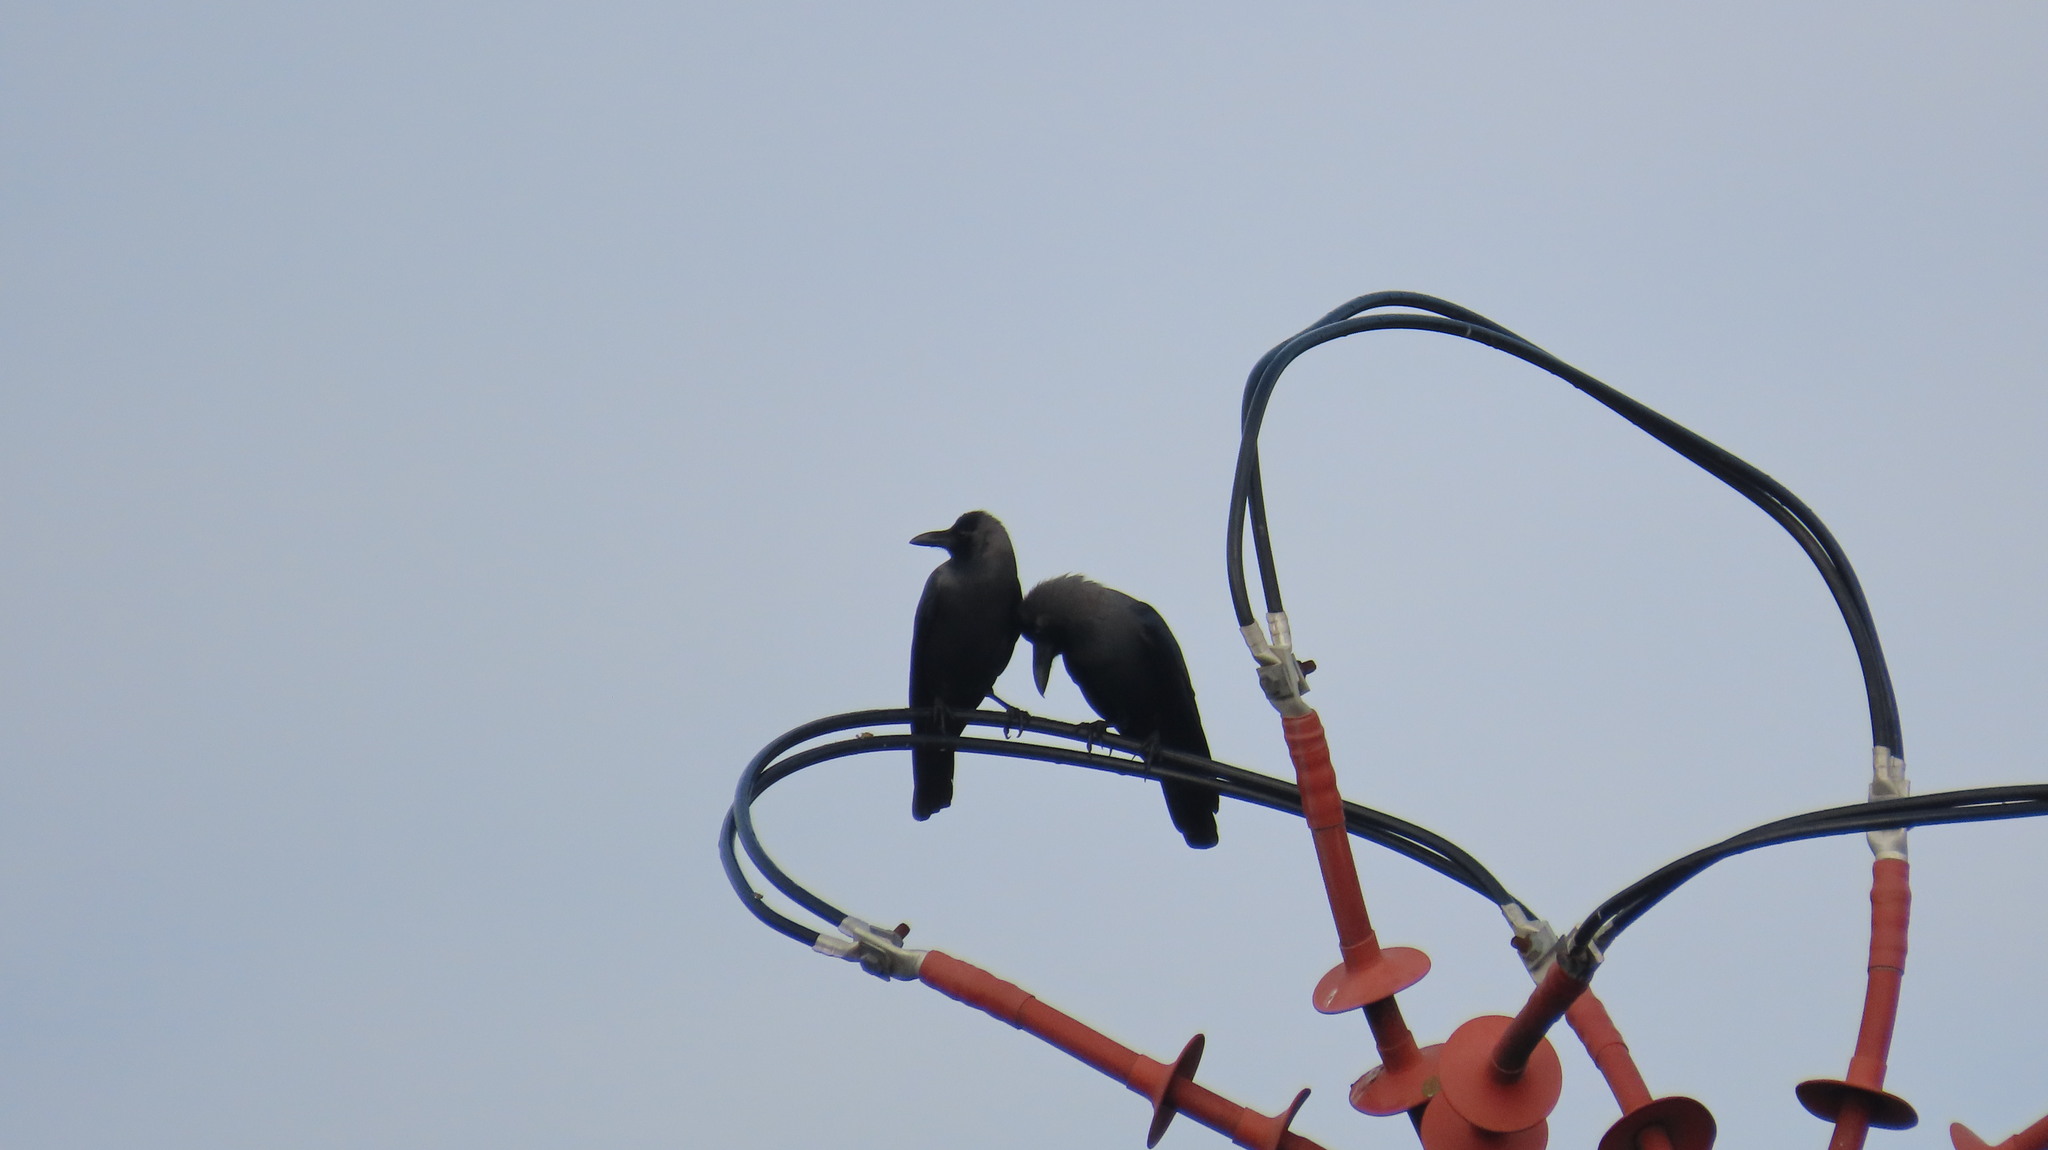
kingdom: Animalia
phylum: Chordata
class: Aves
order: Passeriformes
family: Corvidae
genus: Corvus
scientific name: Corvus splendens
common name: House crow
